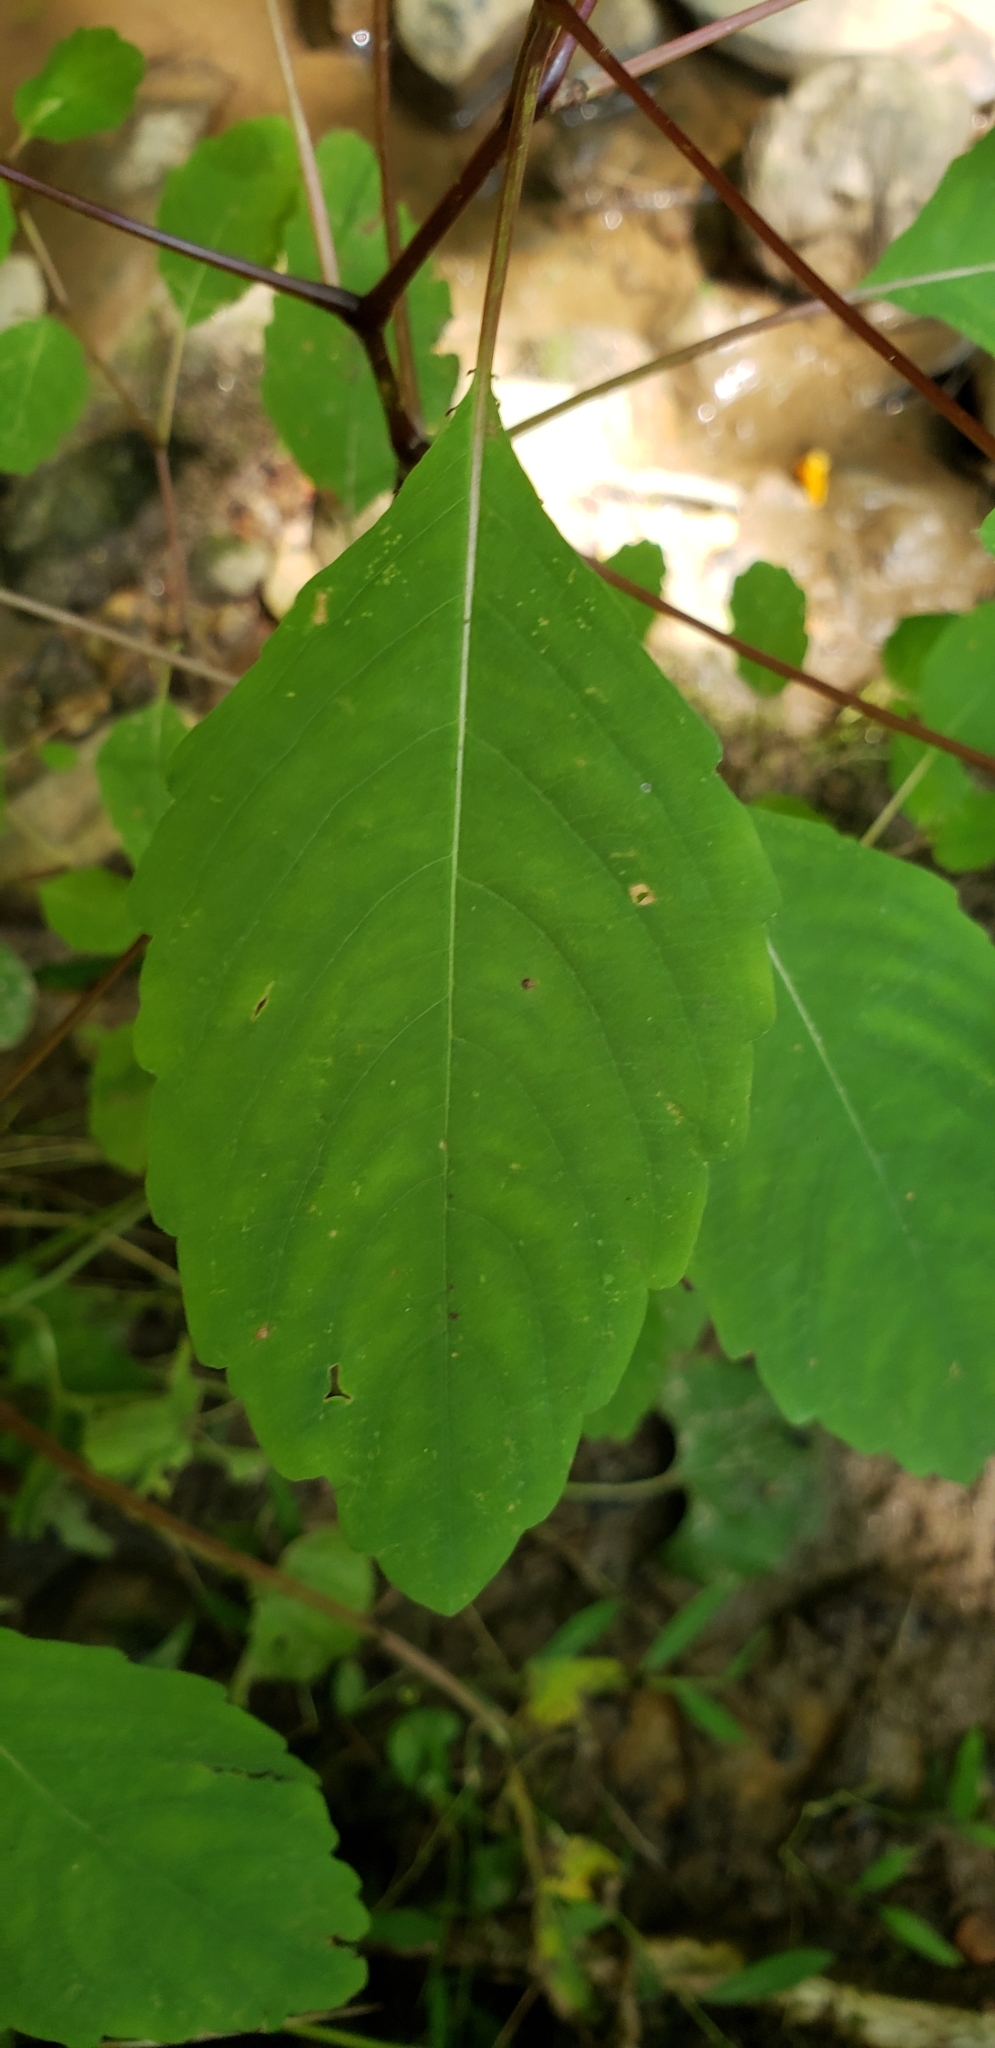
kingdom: Plantae
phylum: Tracheophyta
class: Magnoliopsida
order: Ericales
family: Balsaminaceae
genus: Impatiens
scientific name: Impatiens capensis
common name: Orange balsam
